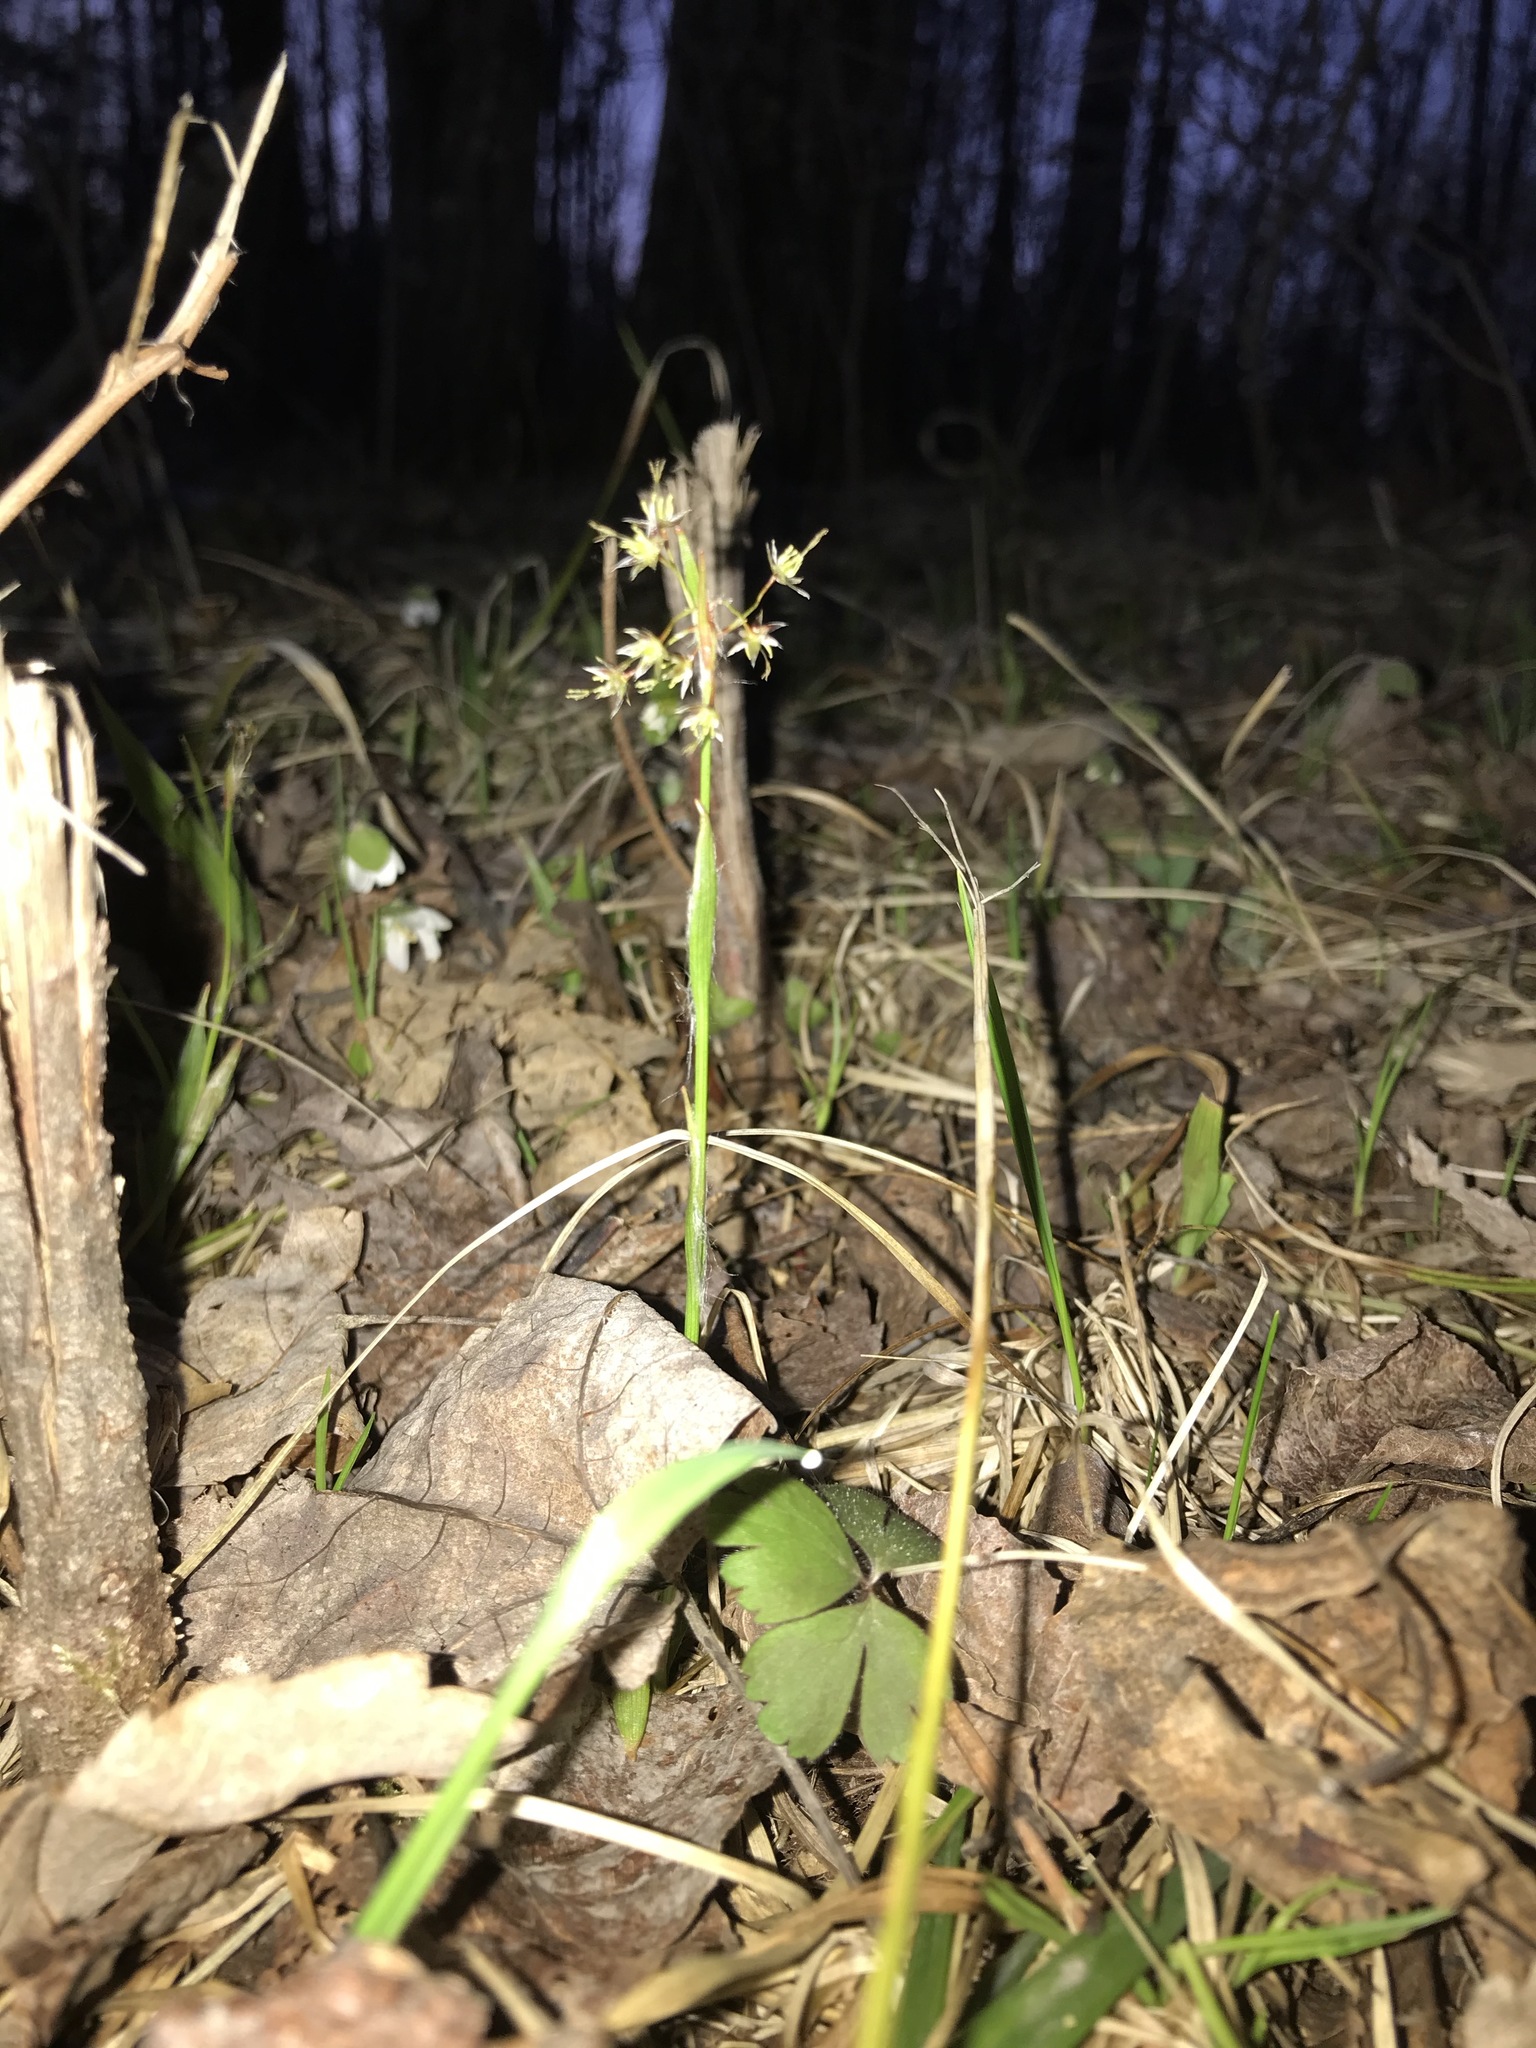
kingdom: Plantae
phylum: Tracheophyta
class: Liliopsida
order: Poales
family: Juncaceae
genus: Luzula
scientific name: Luzula acuminata
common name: Hairy woodrush
